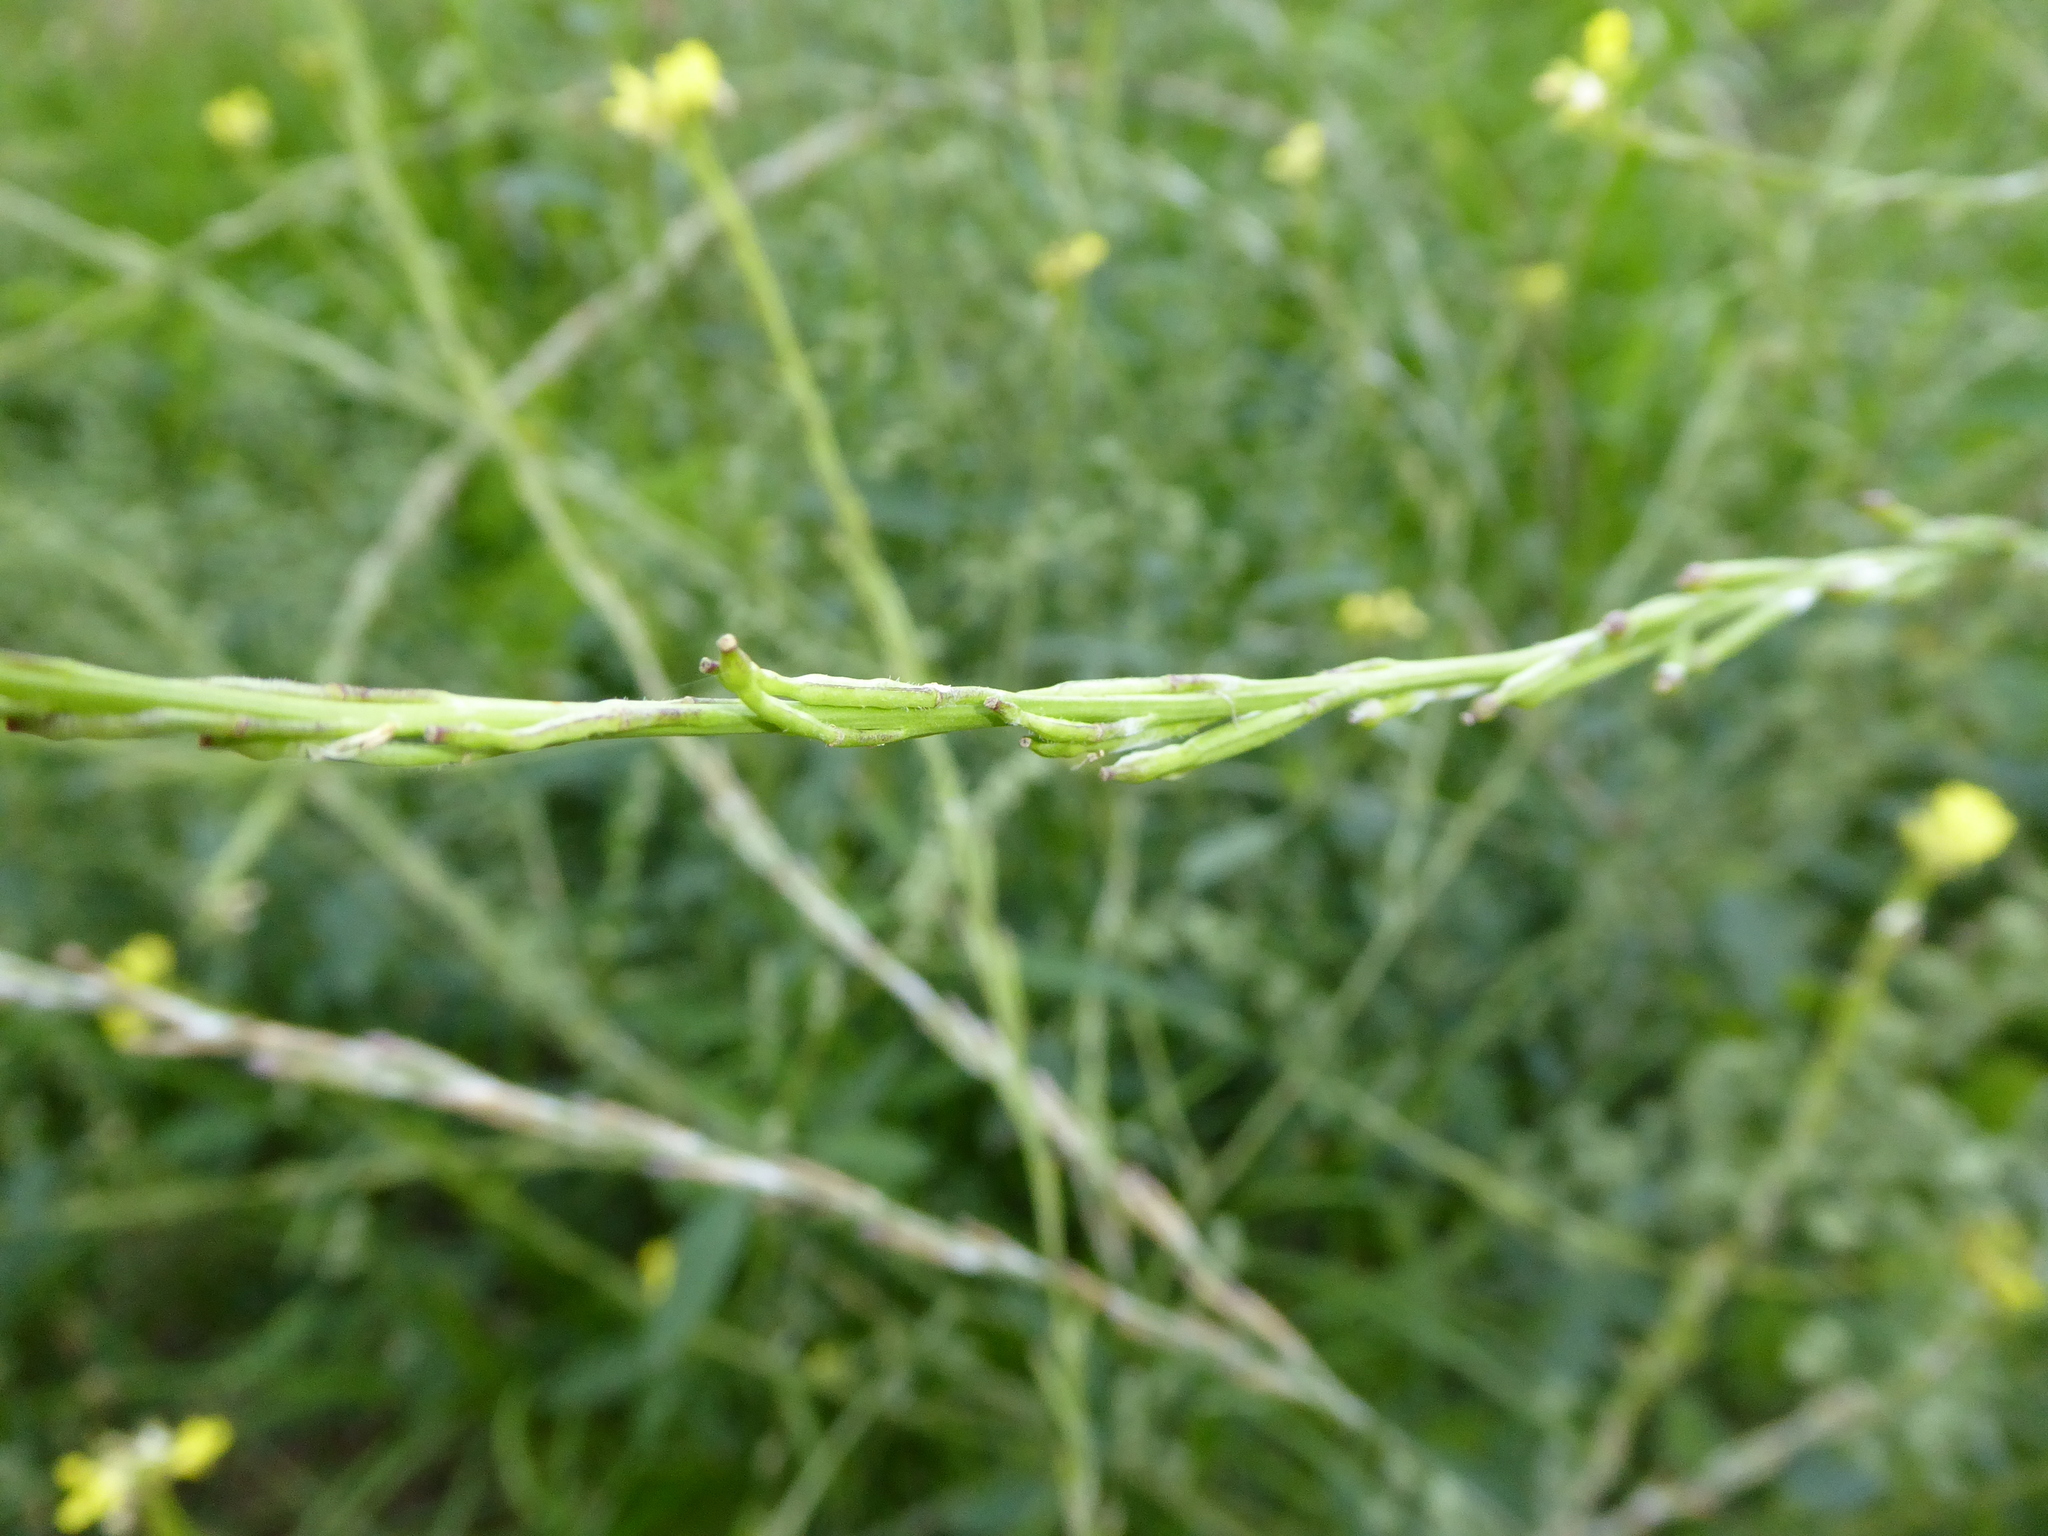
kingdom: Plantae
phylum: Tracheophyta
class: Magnoliopsida
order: Brassicales
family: Brassicaceae
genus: Hirschfeldia
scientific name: Hirschfeldia incana
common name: Hoary mustard
